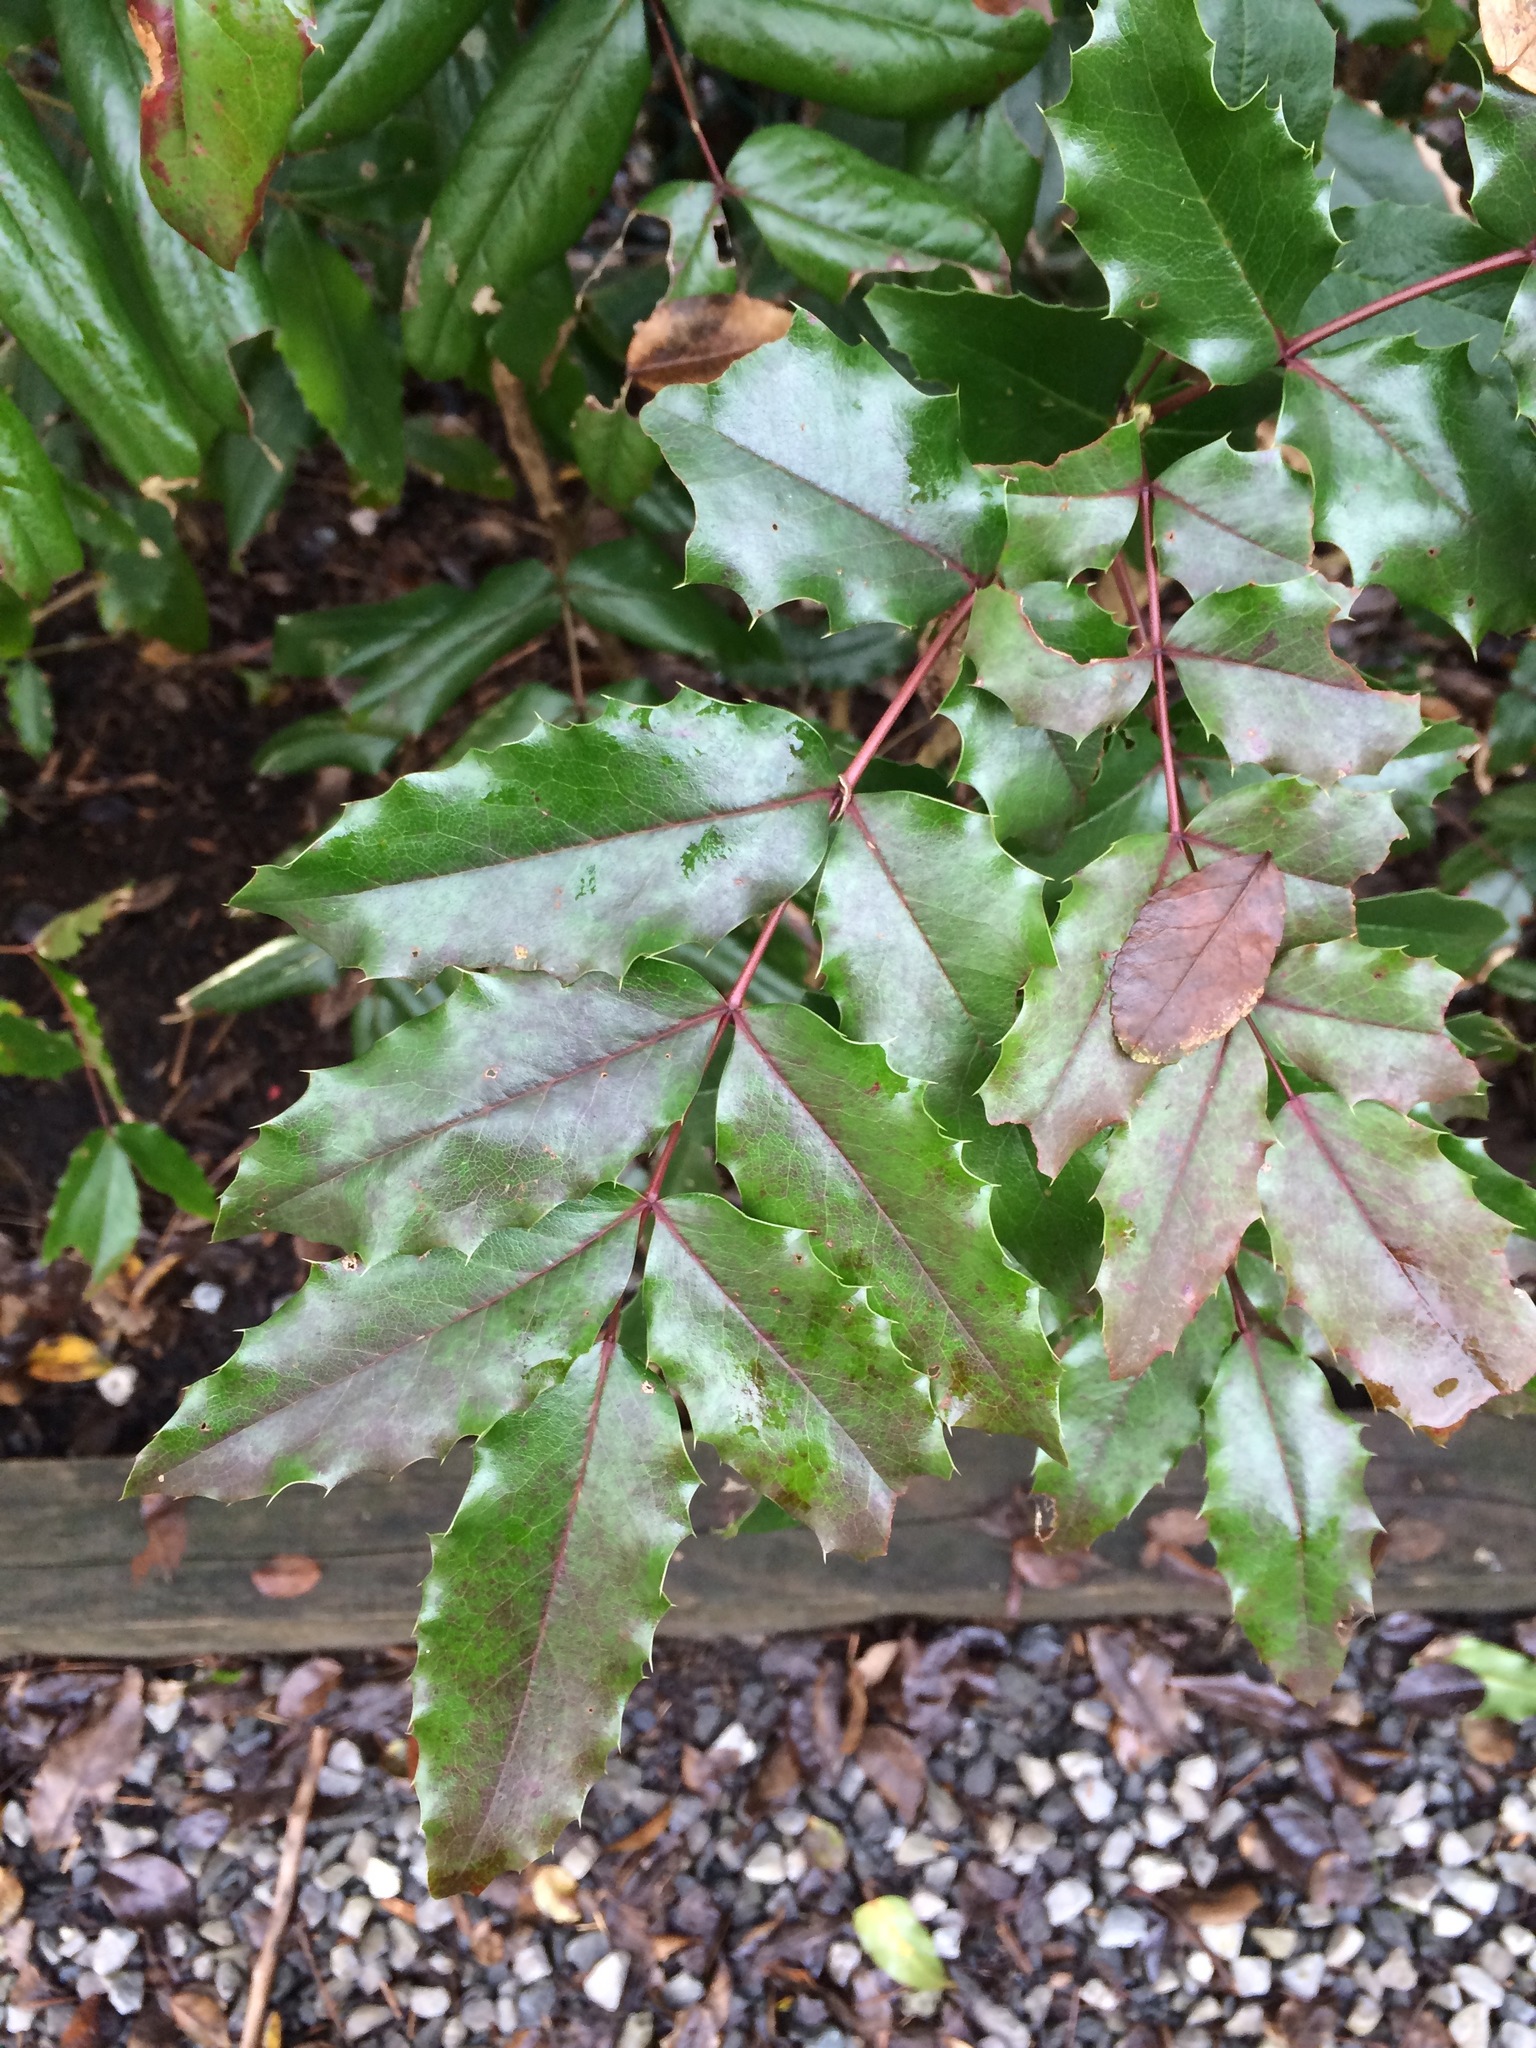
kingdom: Plantae
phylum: Tracheophyta
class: Magnoliopsida
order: Ranunculales
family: Berberidaceae
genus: Mahonia
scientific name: Mahonia aquifolium
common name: Oregon-grape
